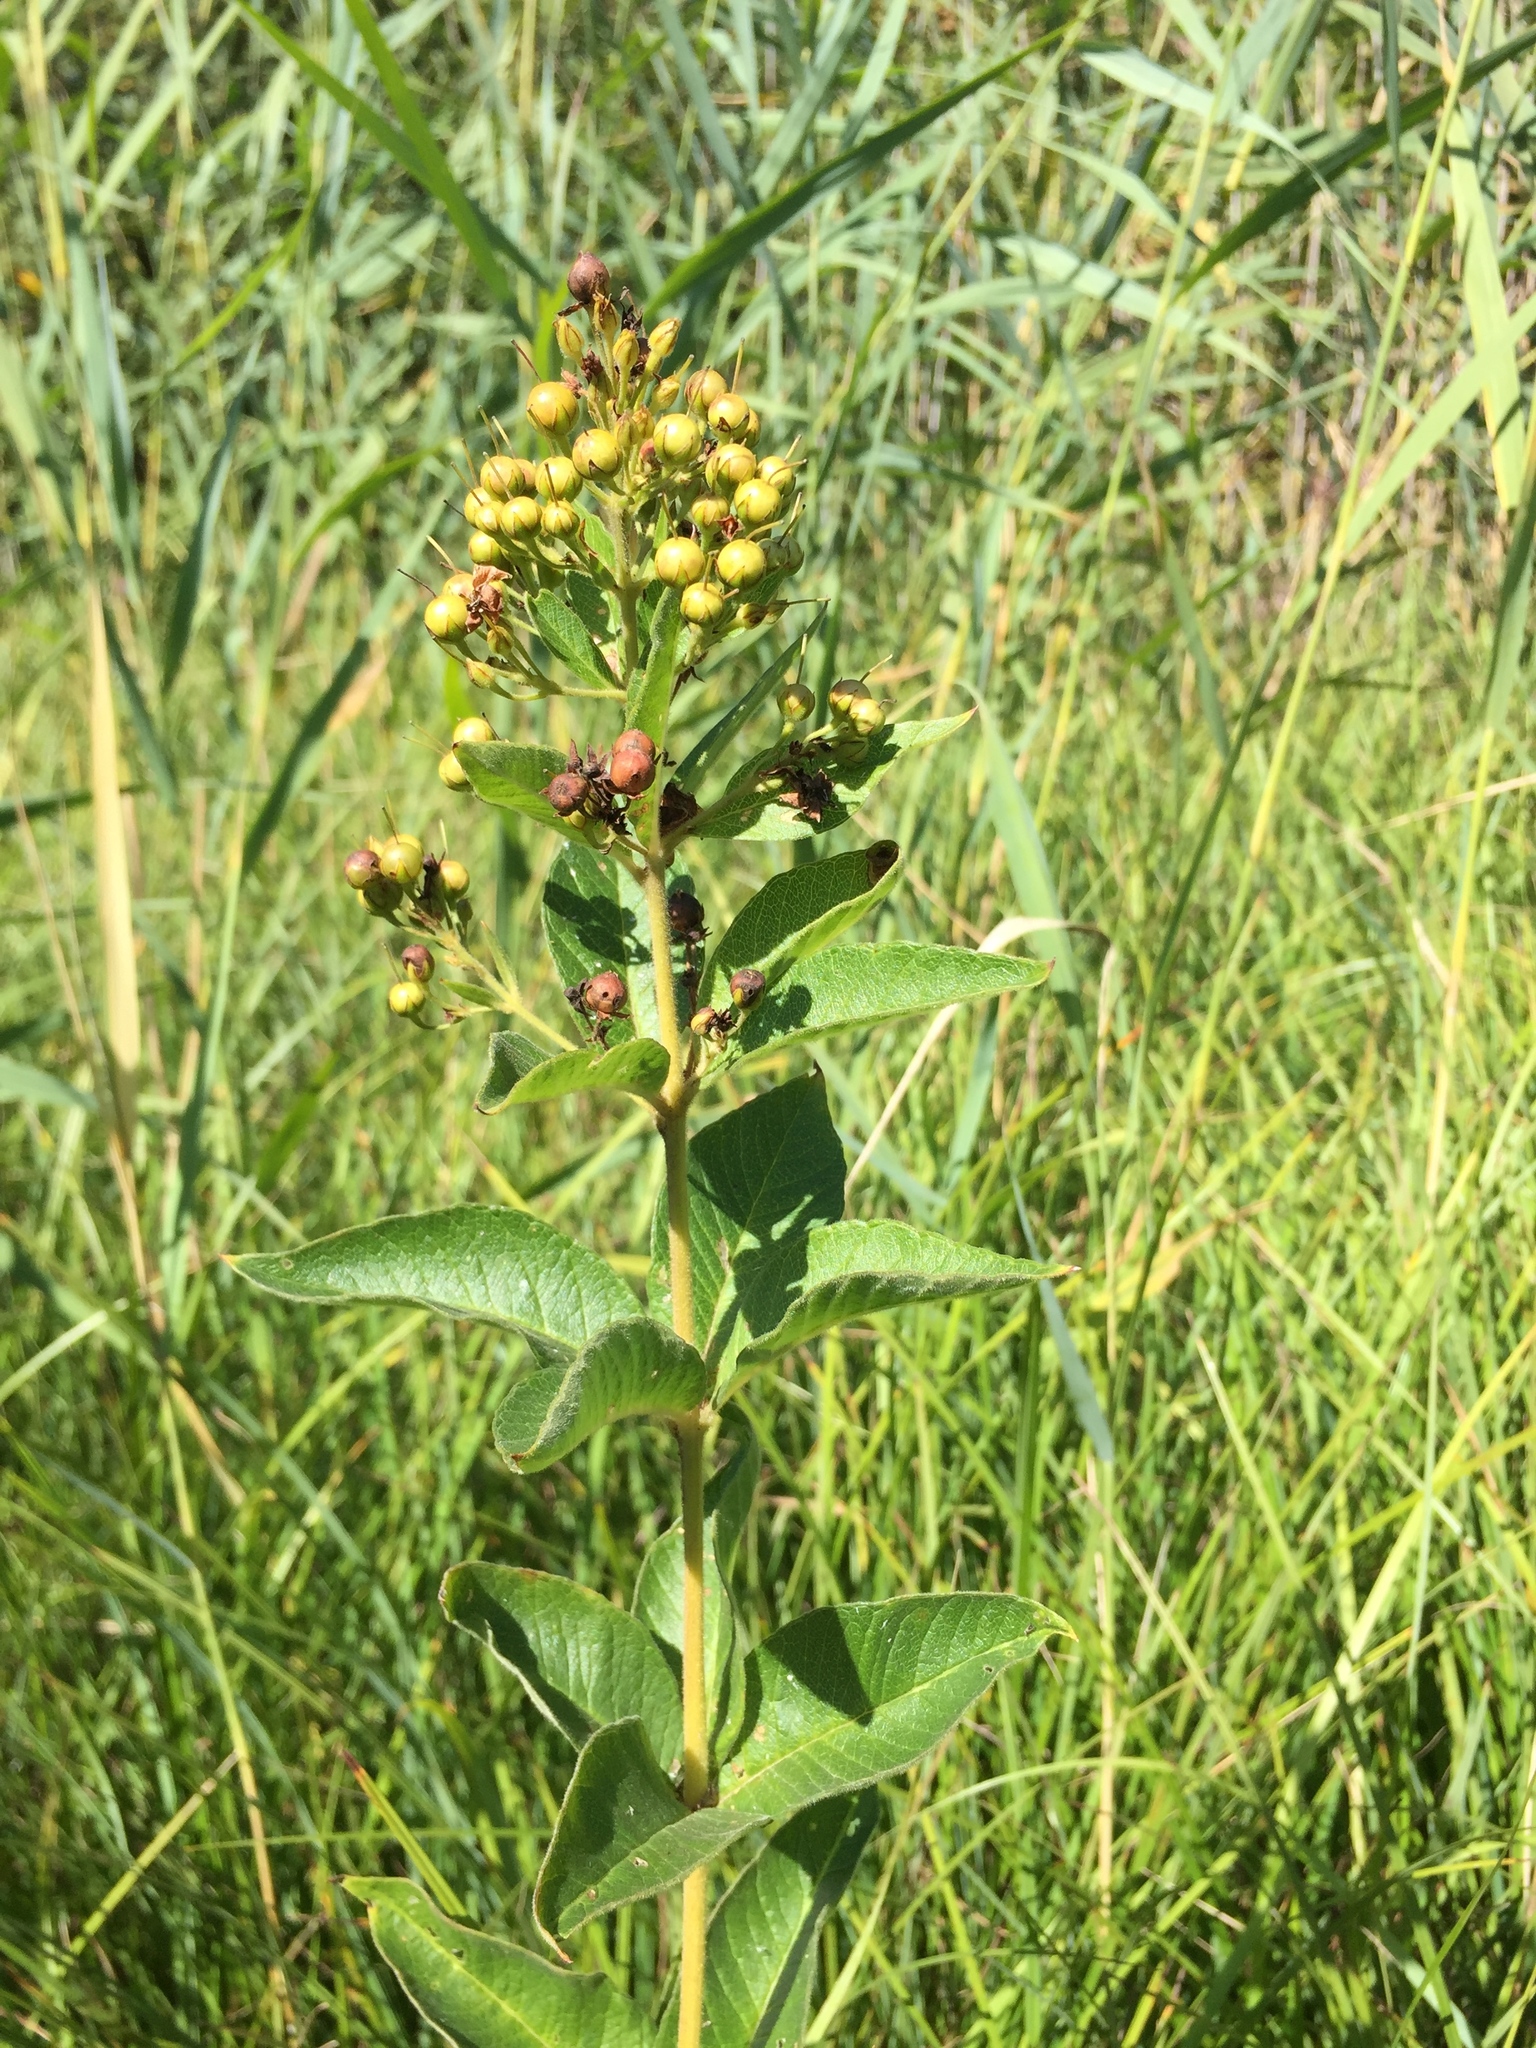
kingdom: Plantae
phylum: Tracheophyta
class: Magnoliopsida
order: Ericales
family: Primulaceae
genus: Lysimachia
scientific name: Lysimachia vulgaris
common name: Yellow loosestrife
